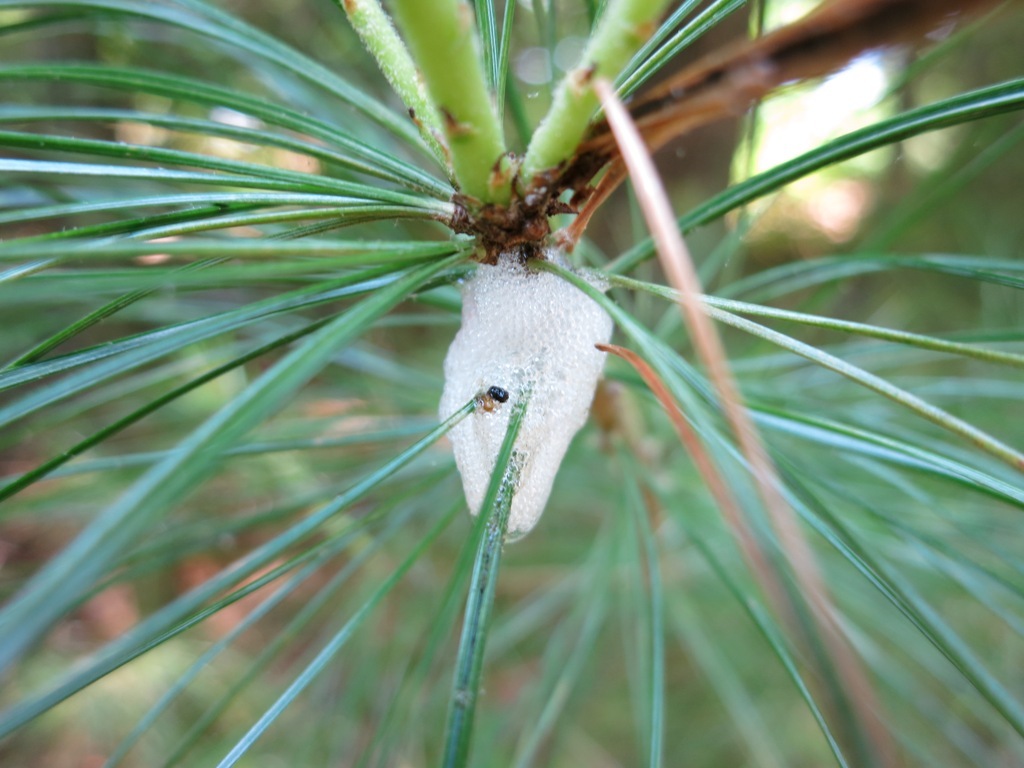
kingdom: Animalia
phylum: Arthropoda
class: Insecta
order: Hemiptera
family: Epipygidae
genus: Epipyga
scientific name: Epipyga cribrata
